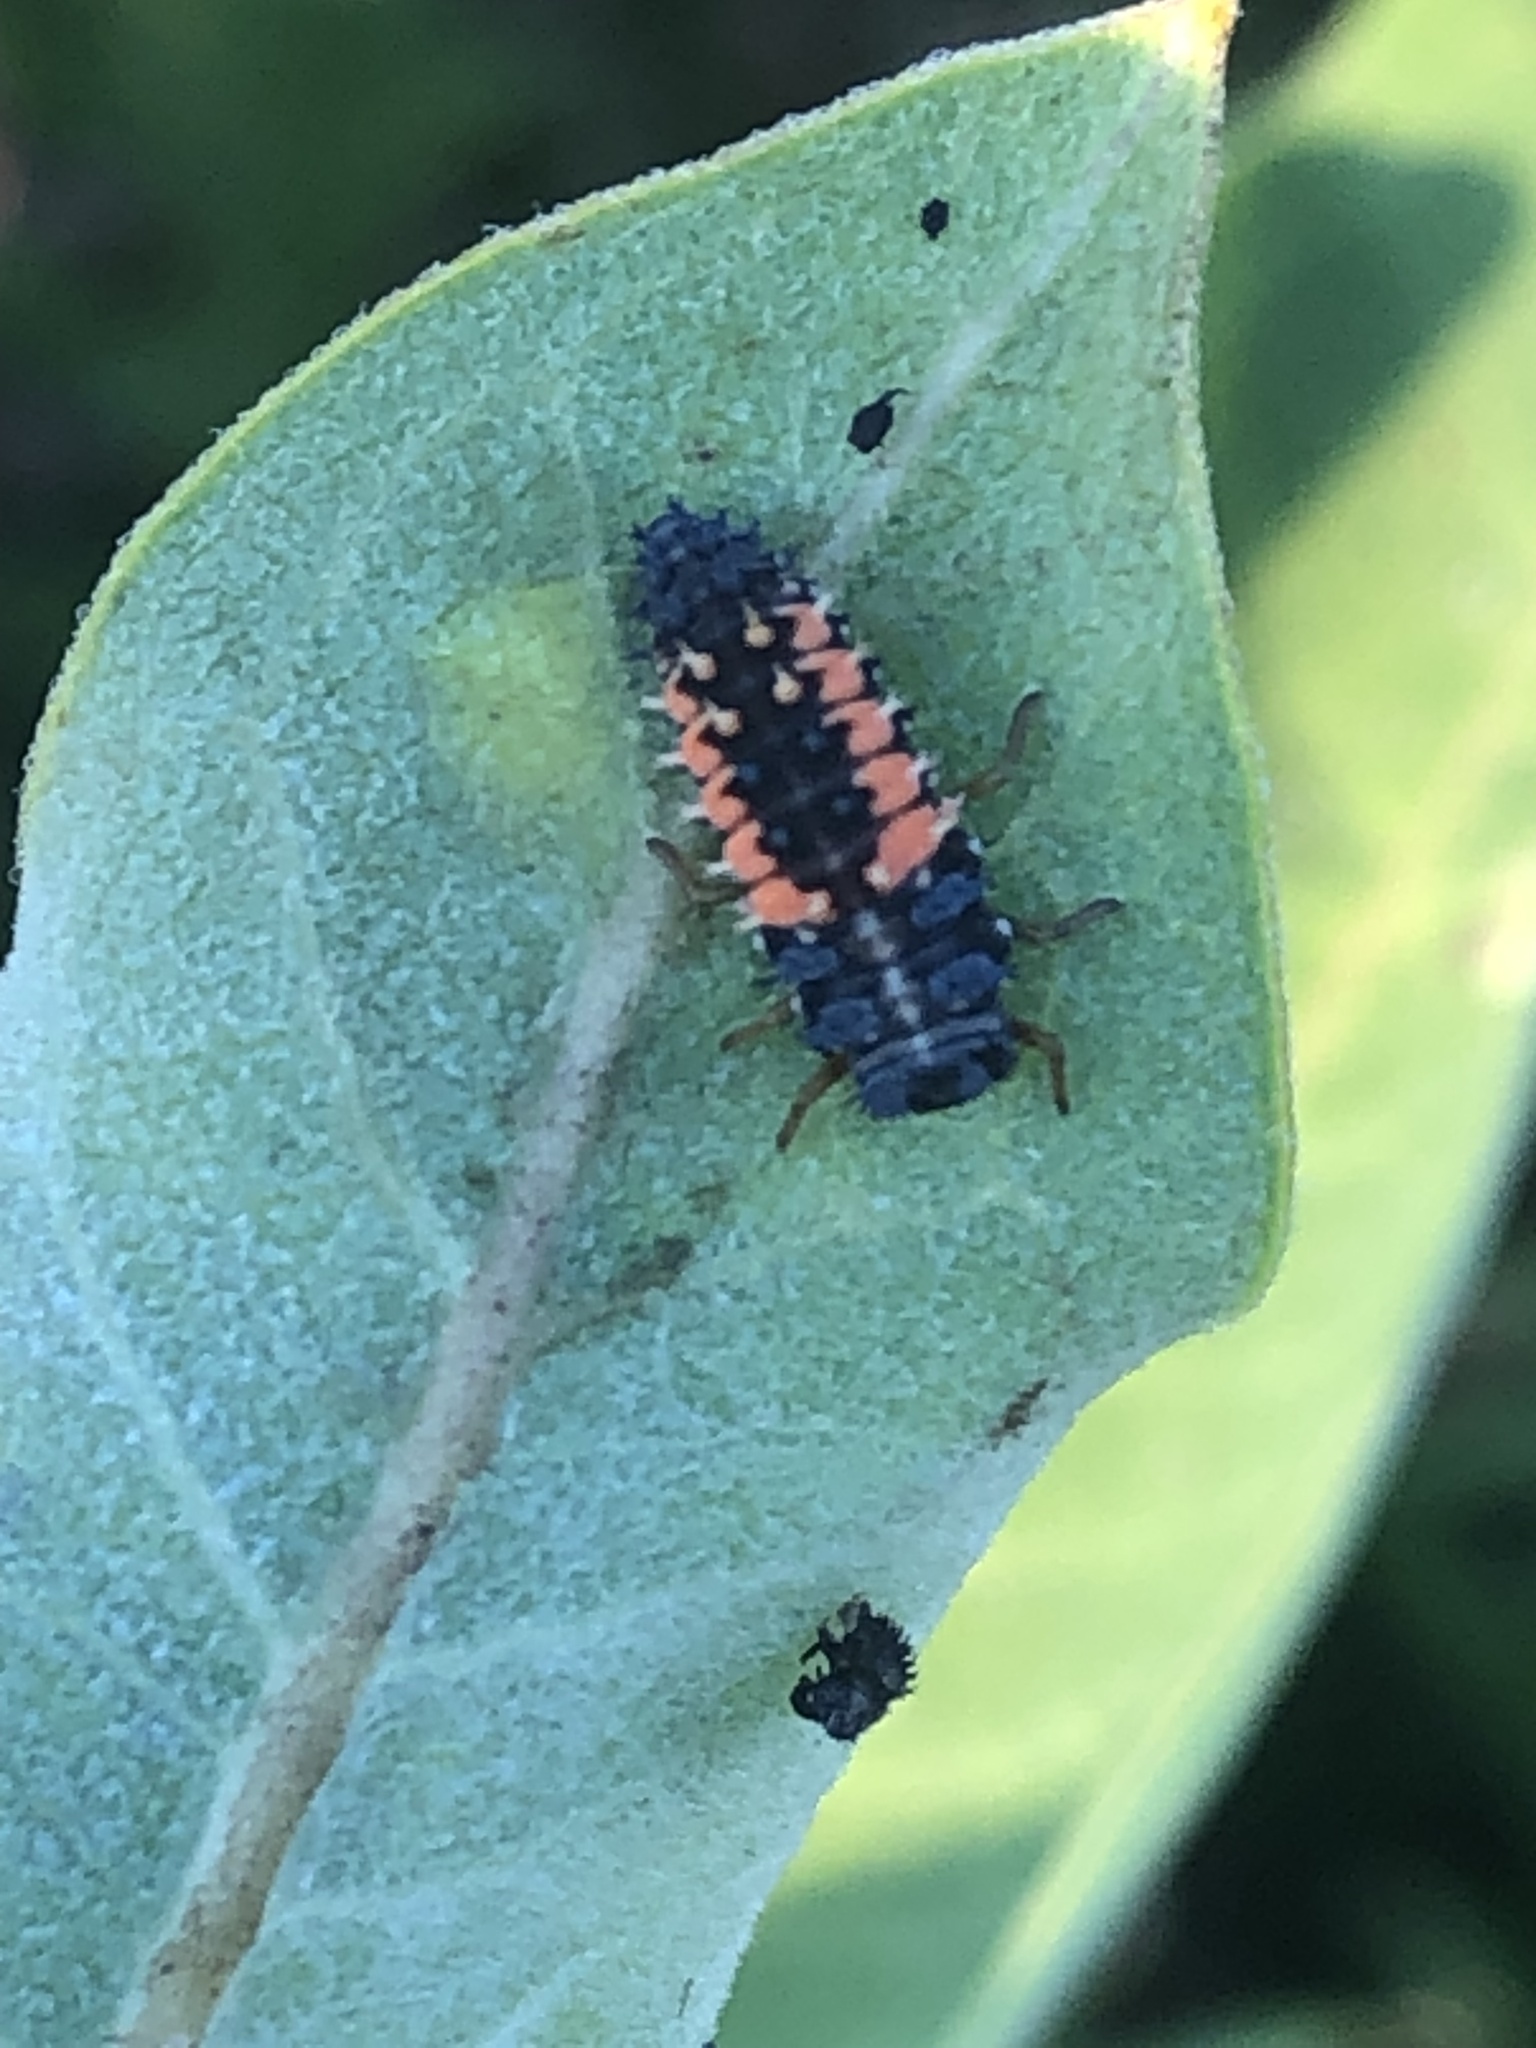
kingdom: Animalia
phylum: Arthropoda
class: Insecta
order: Coleoptera
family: Coccinellidae
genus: Harmonia
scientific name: Harmonia axyridis
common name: Harlequin ladybird
